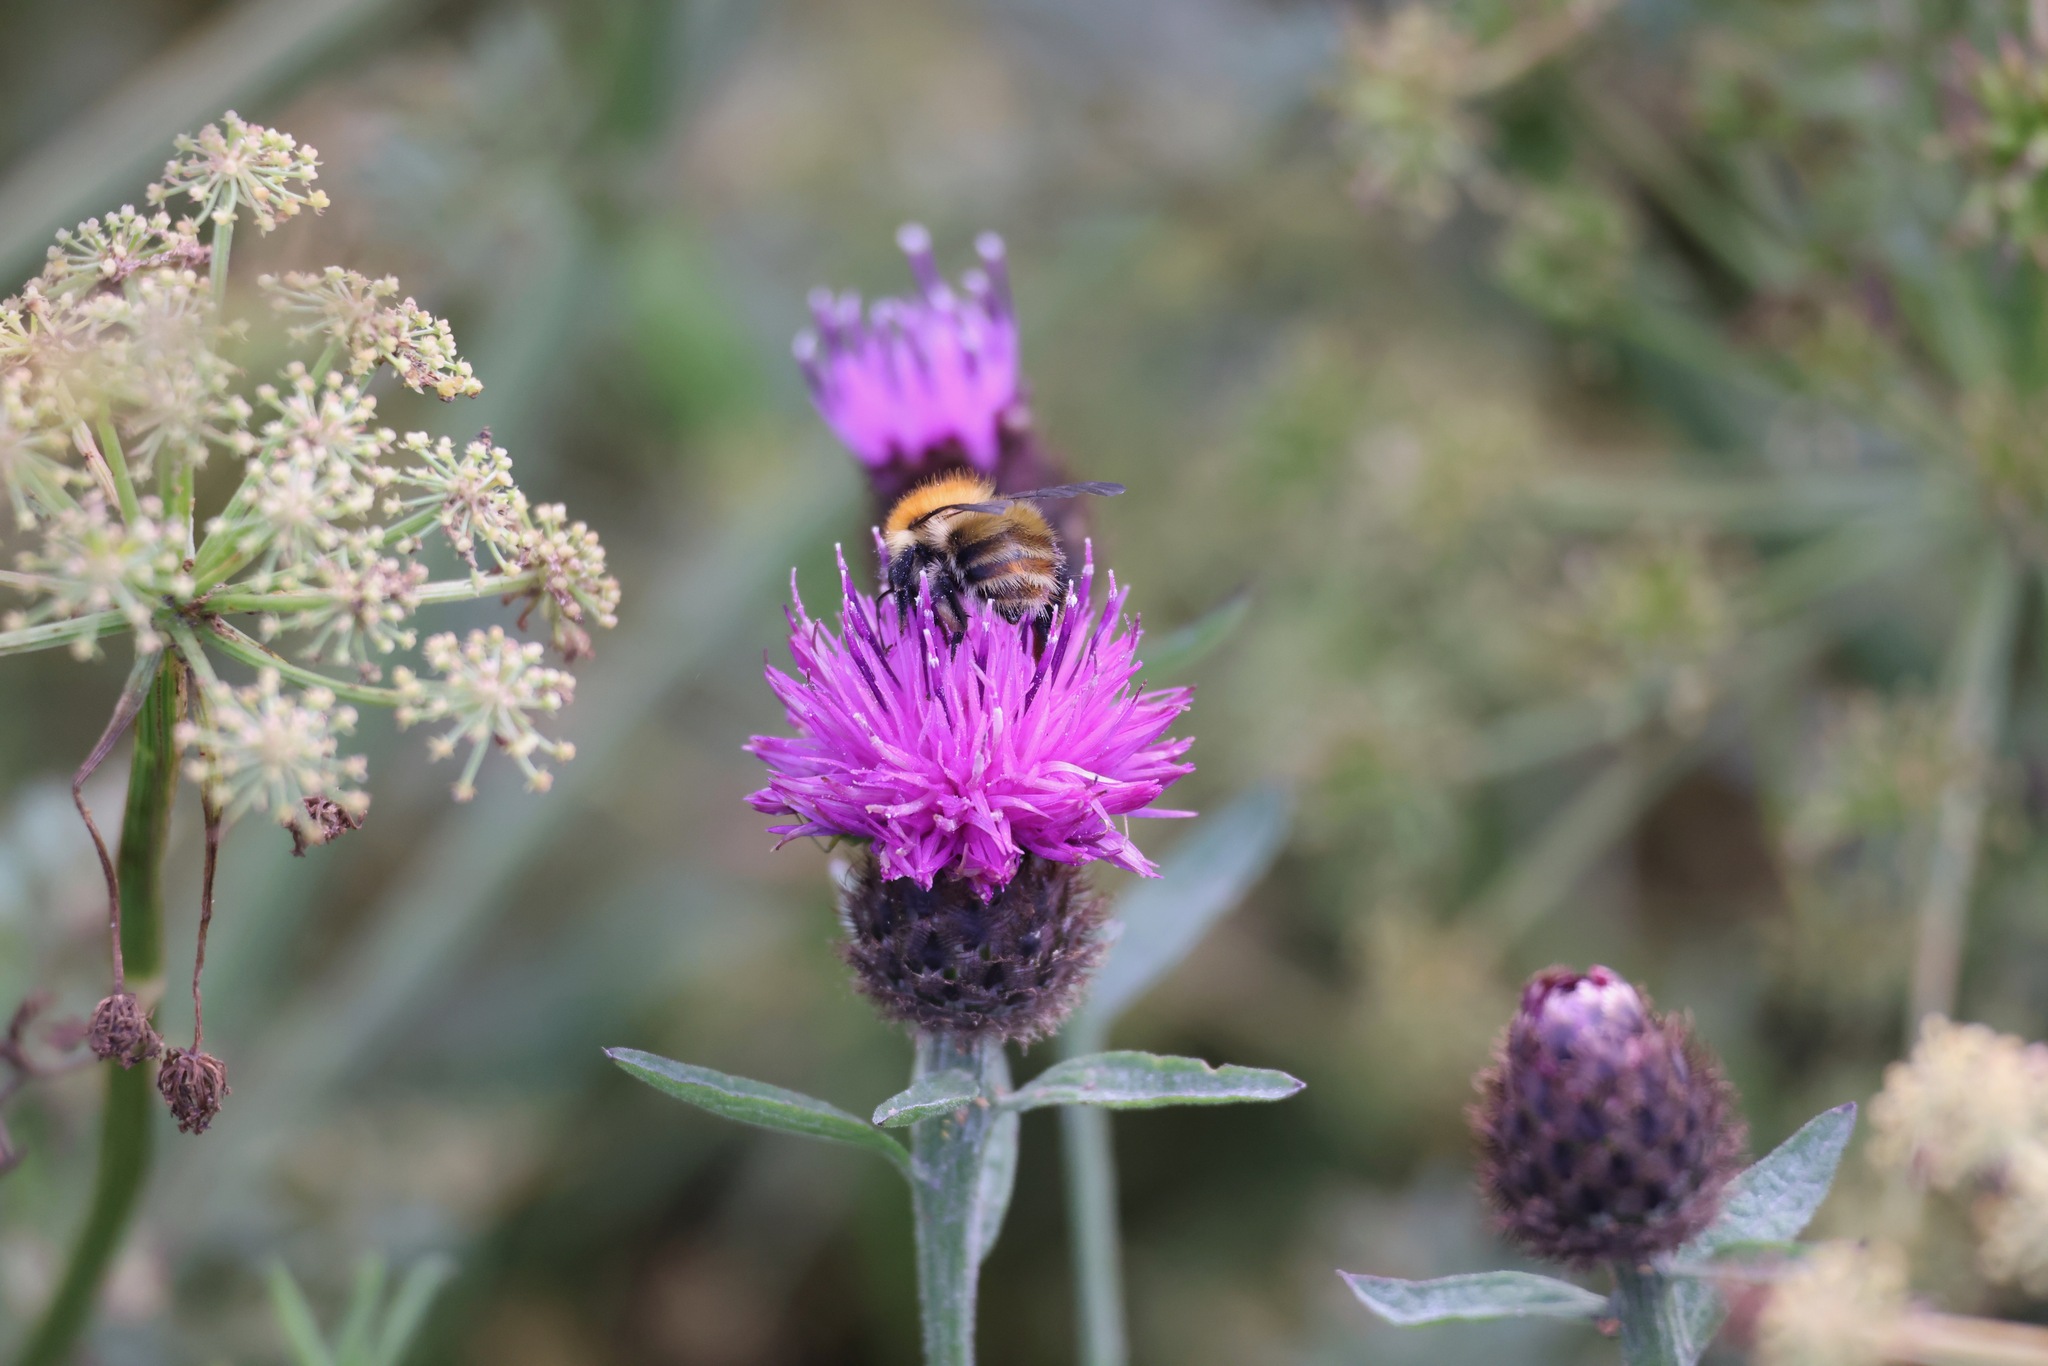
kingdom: Animalia
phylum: Arthropoda
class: Insecta
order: Hymenoptera
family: Apidae
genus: Bombus
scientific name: Bombus pascuorum
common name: Common carder bee
